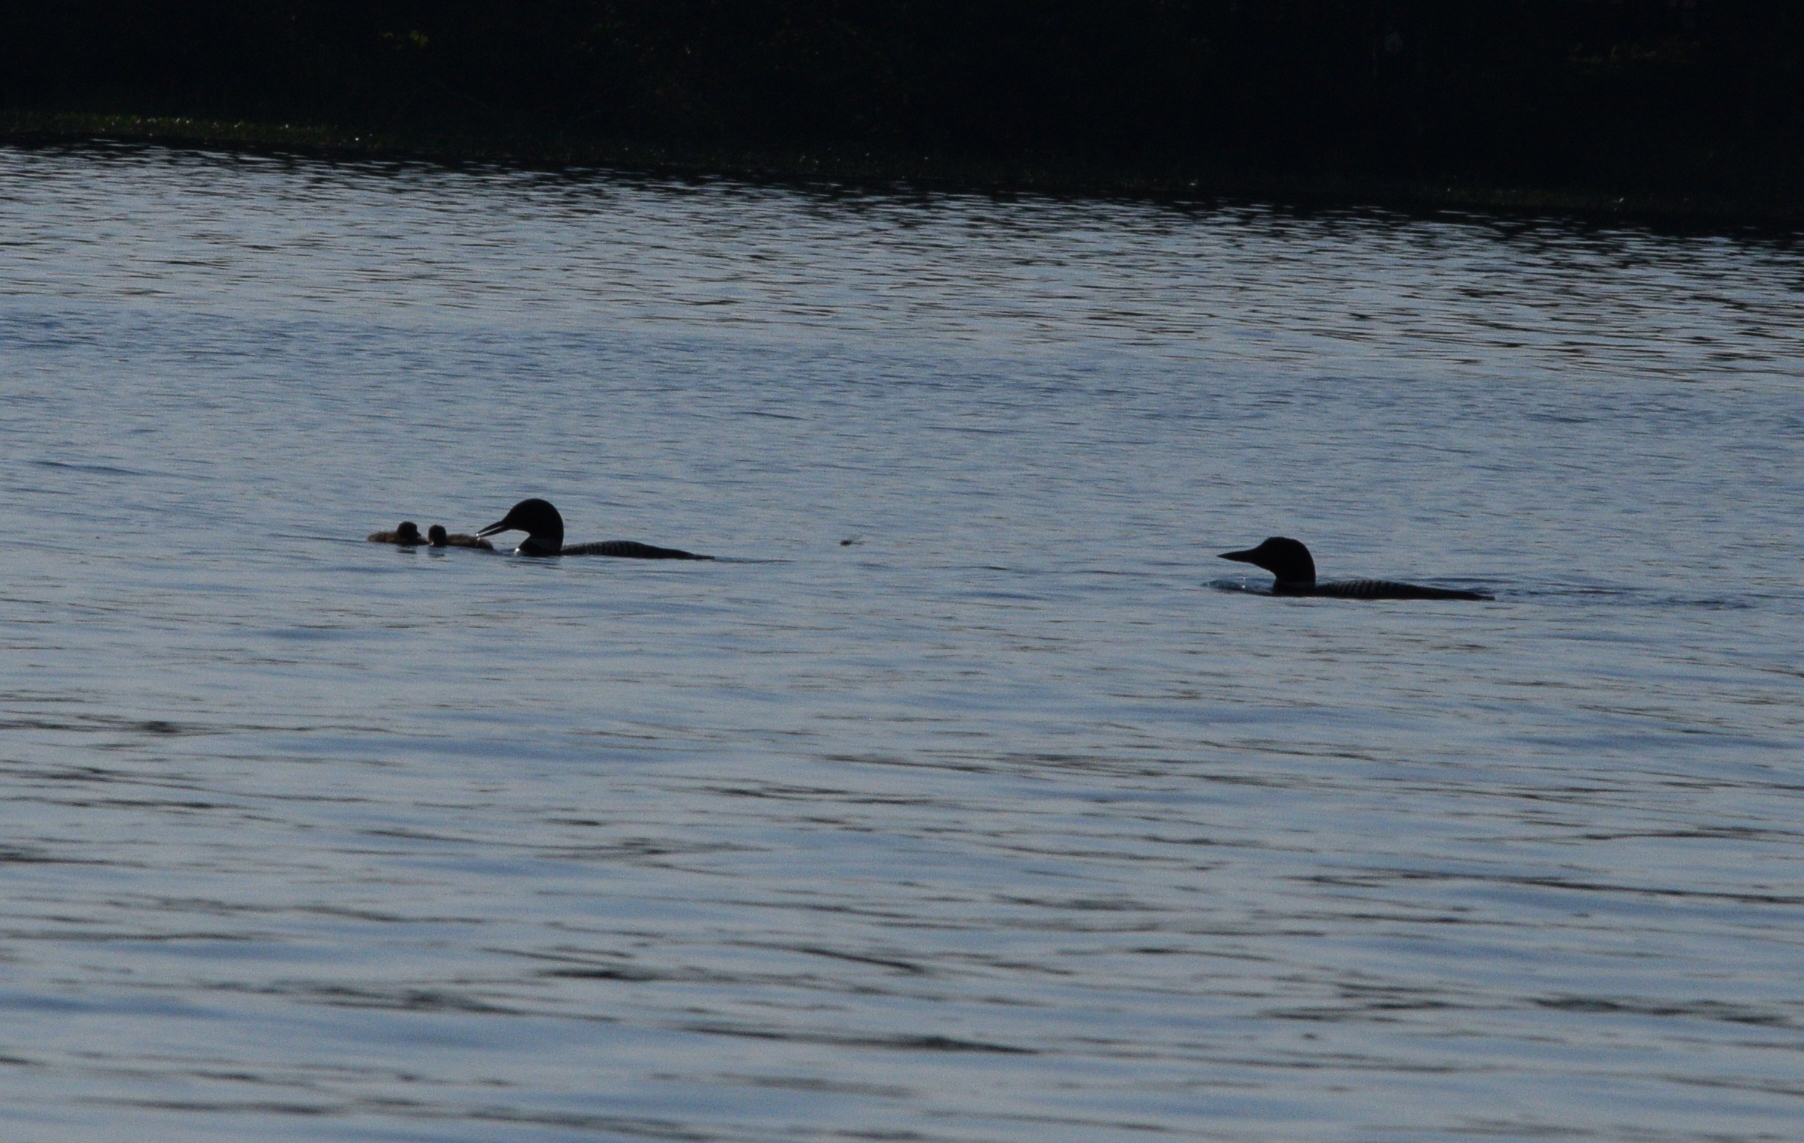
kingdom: Animalia
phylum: Chordata
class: Aves
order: Gaviiformes
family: Gaviidae
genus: Gavia
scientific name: Gavia immer
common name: Common loon
